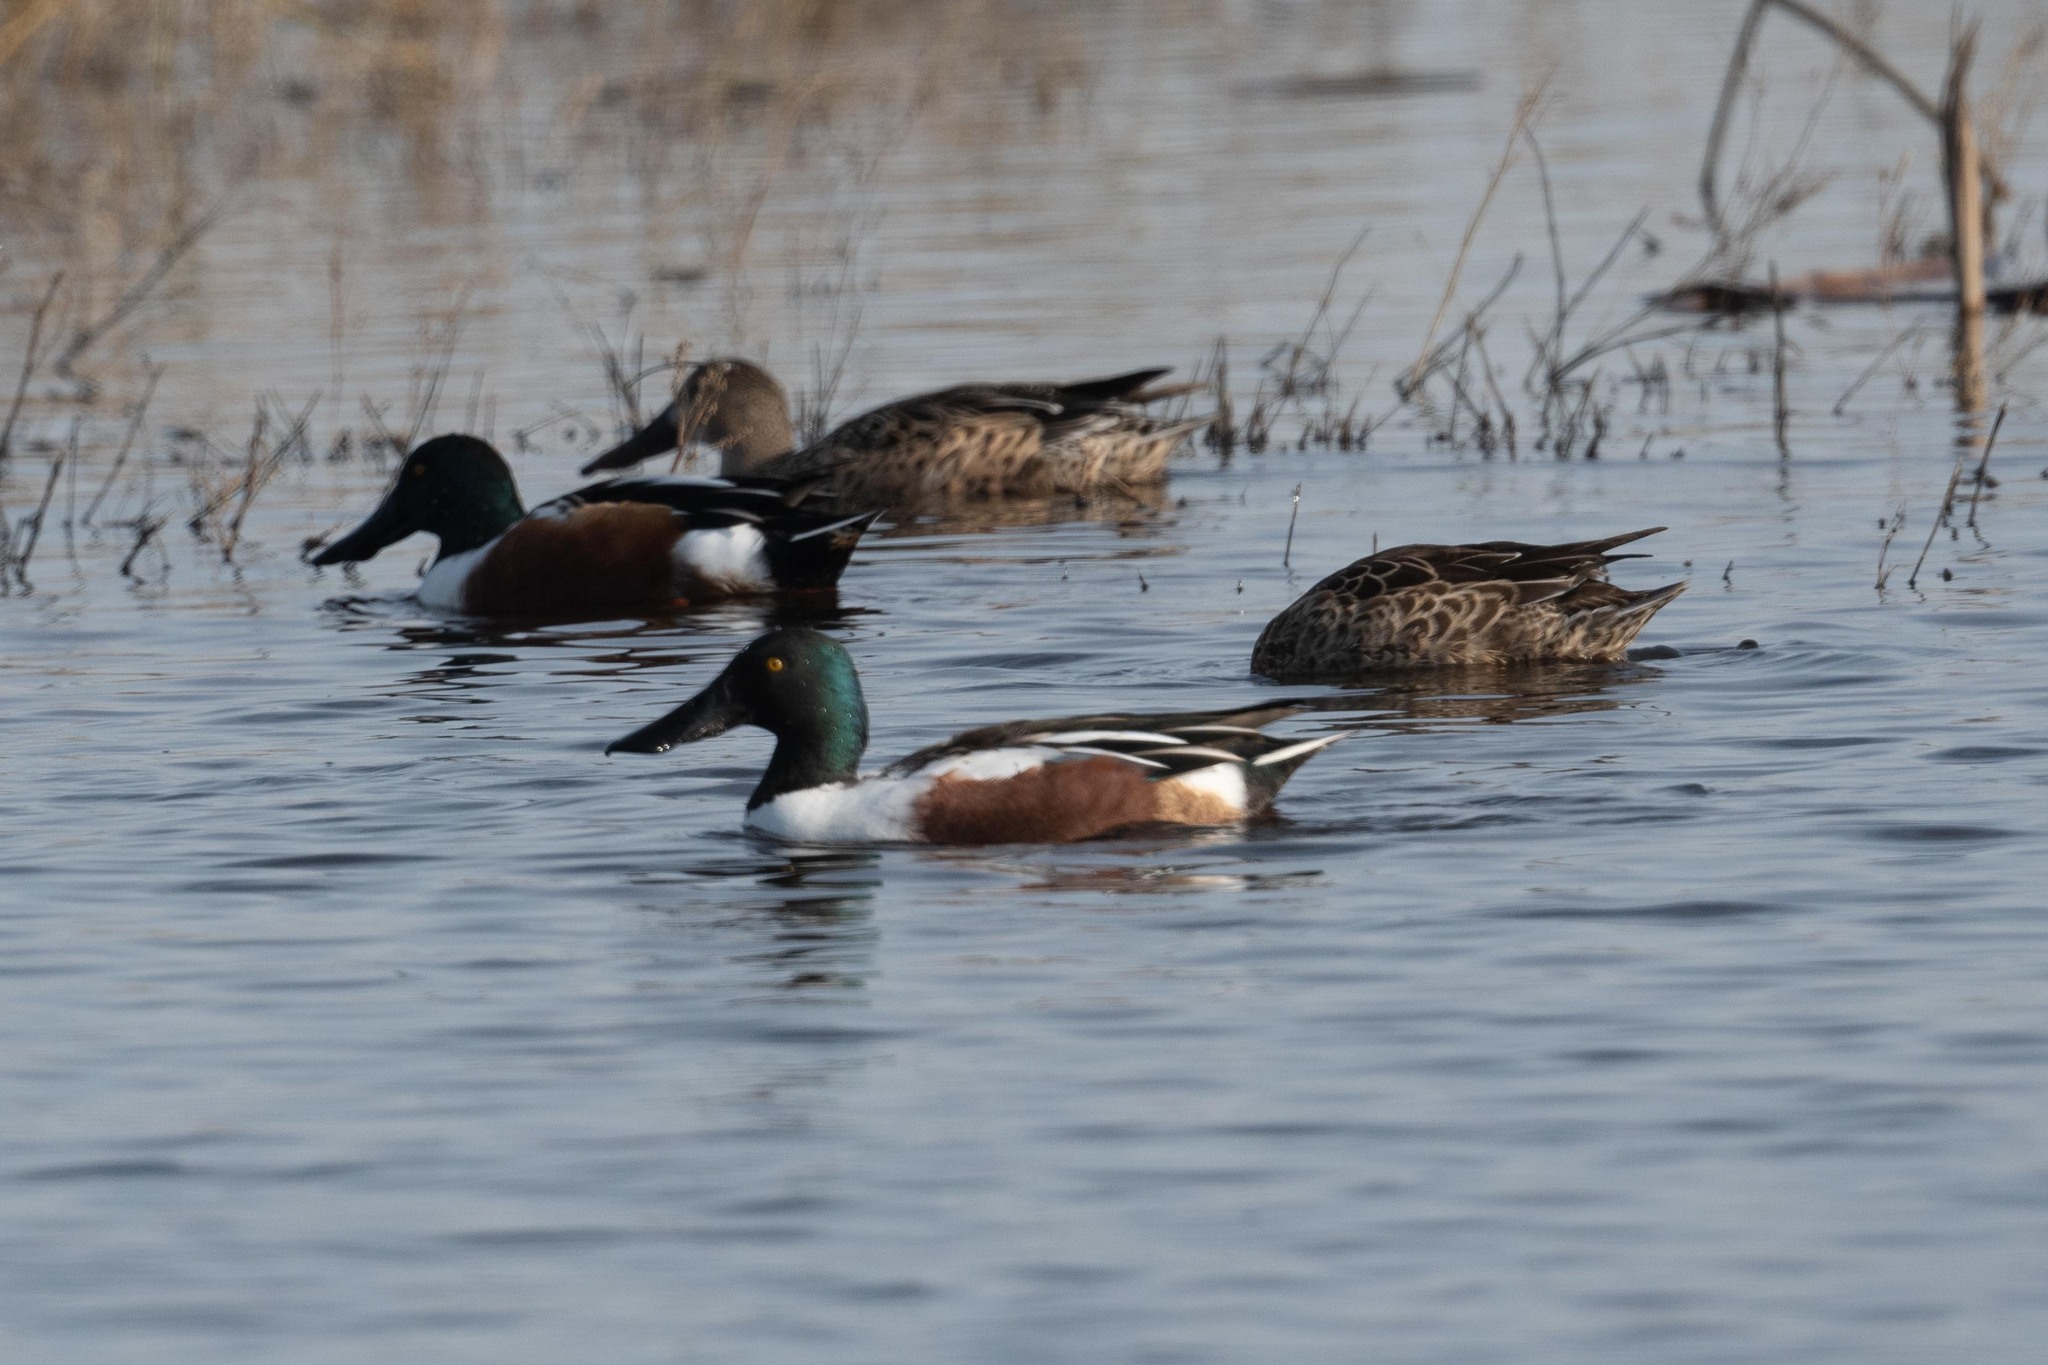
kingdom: Animalia
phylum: Chordata
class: Aves
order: Anseriformes
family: Anatidae
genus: Spatula
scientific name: Spatula clypeata
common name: Northern shoveler
